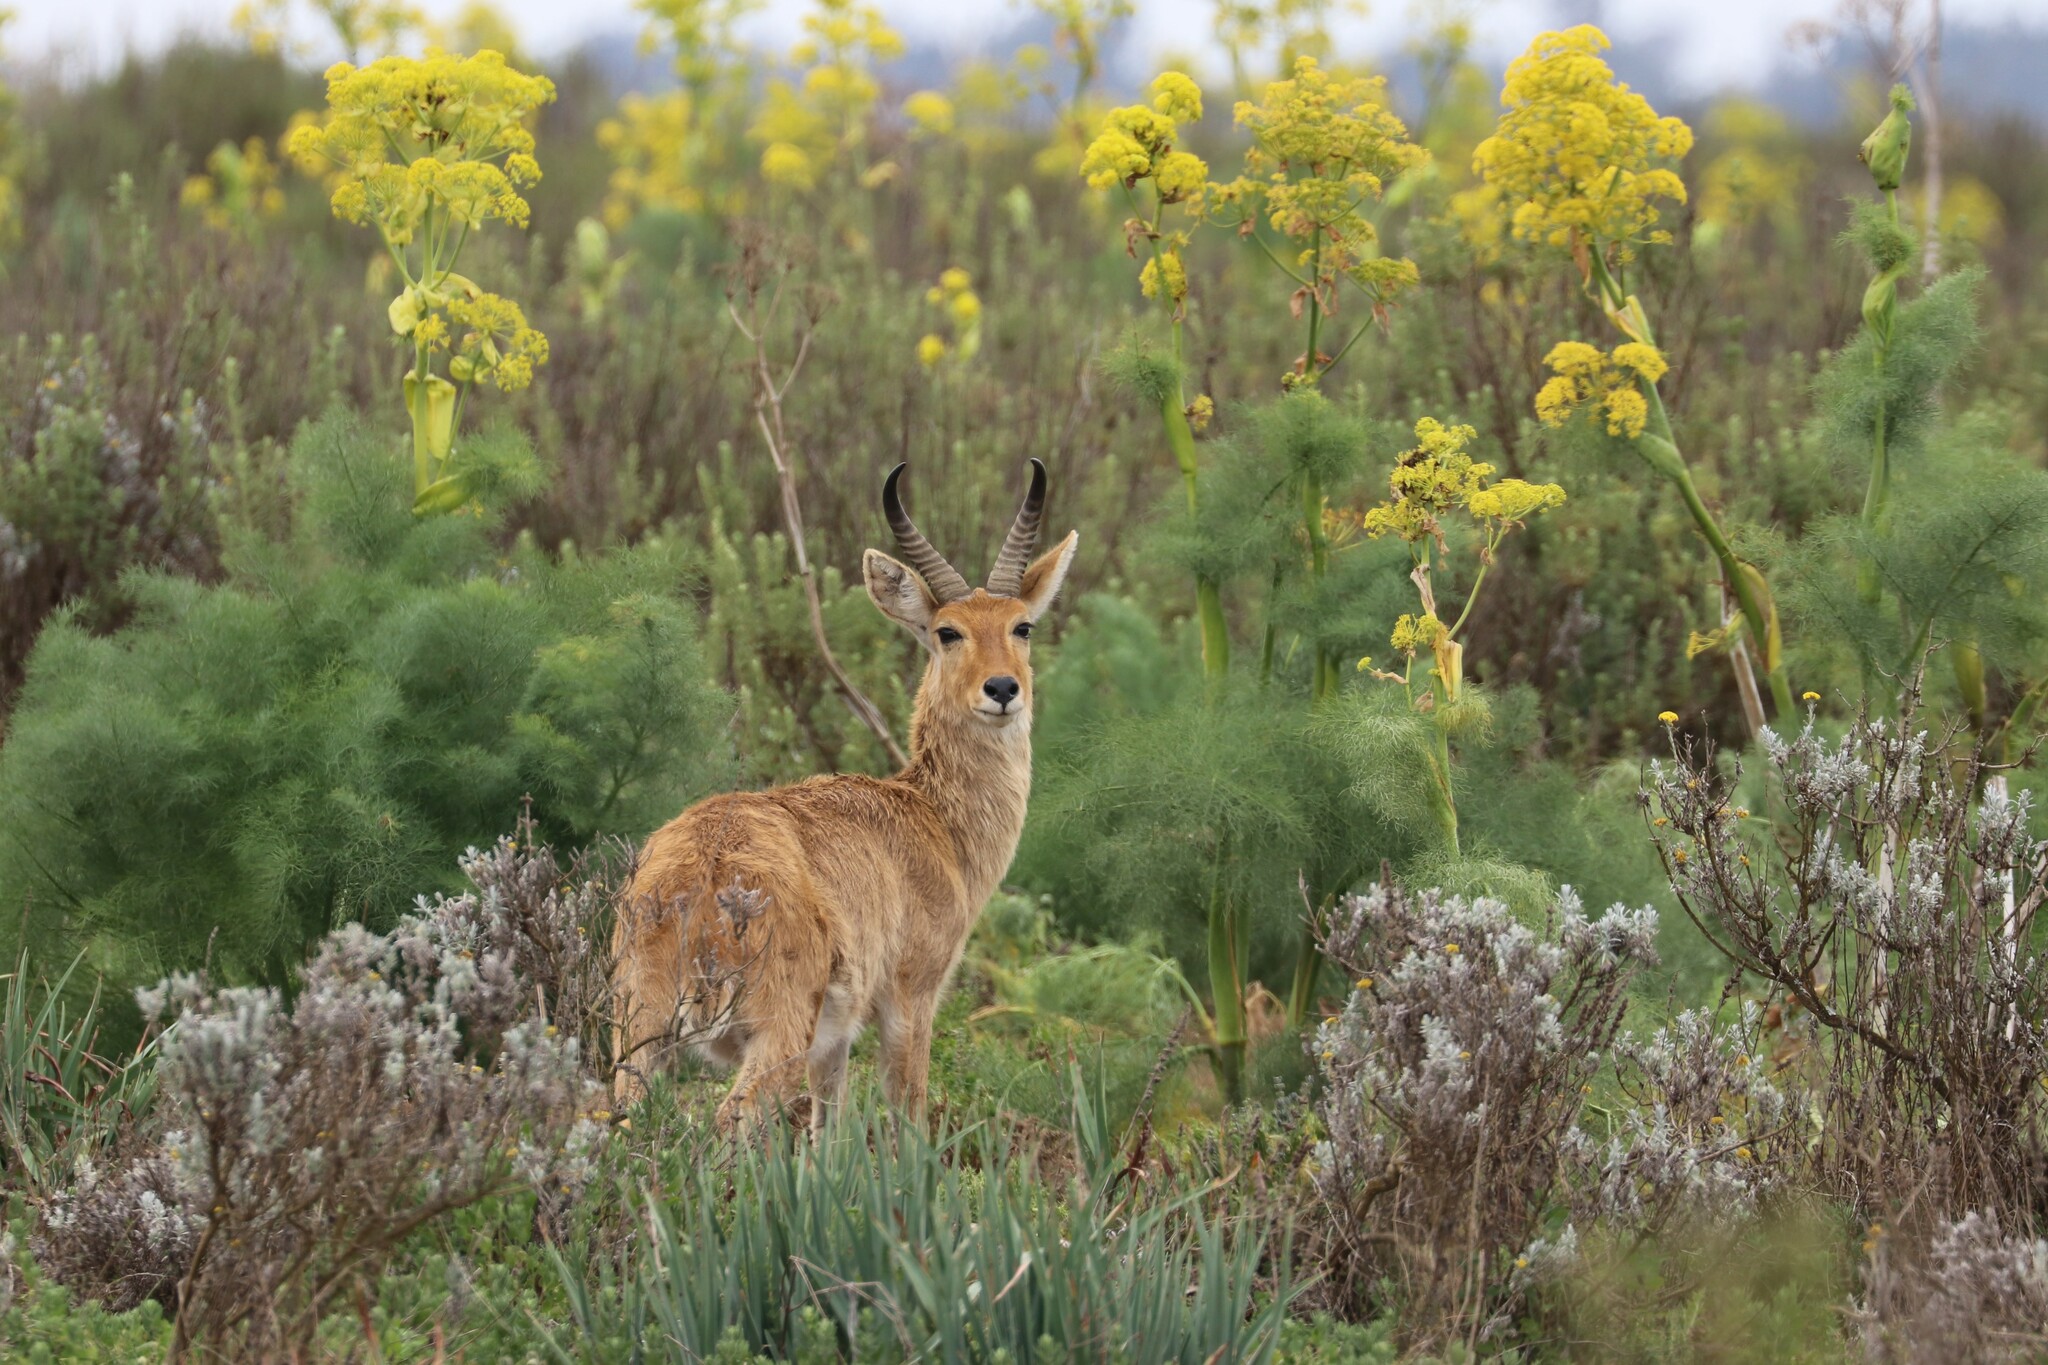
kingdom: Animalia
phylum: Chordata
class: Mammalia
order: Artiodactyla
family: Bovidae
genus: Redunca
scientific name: Redunca redunca
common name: Common reedbuck
